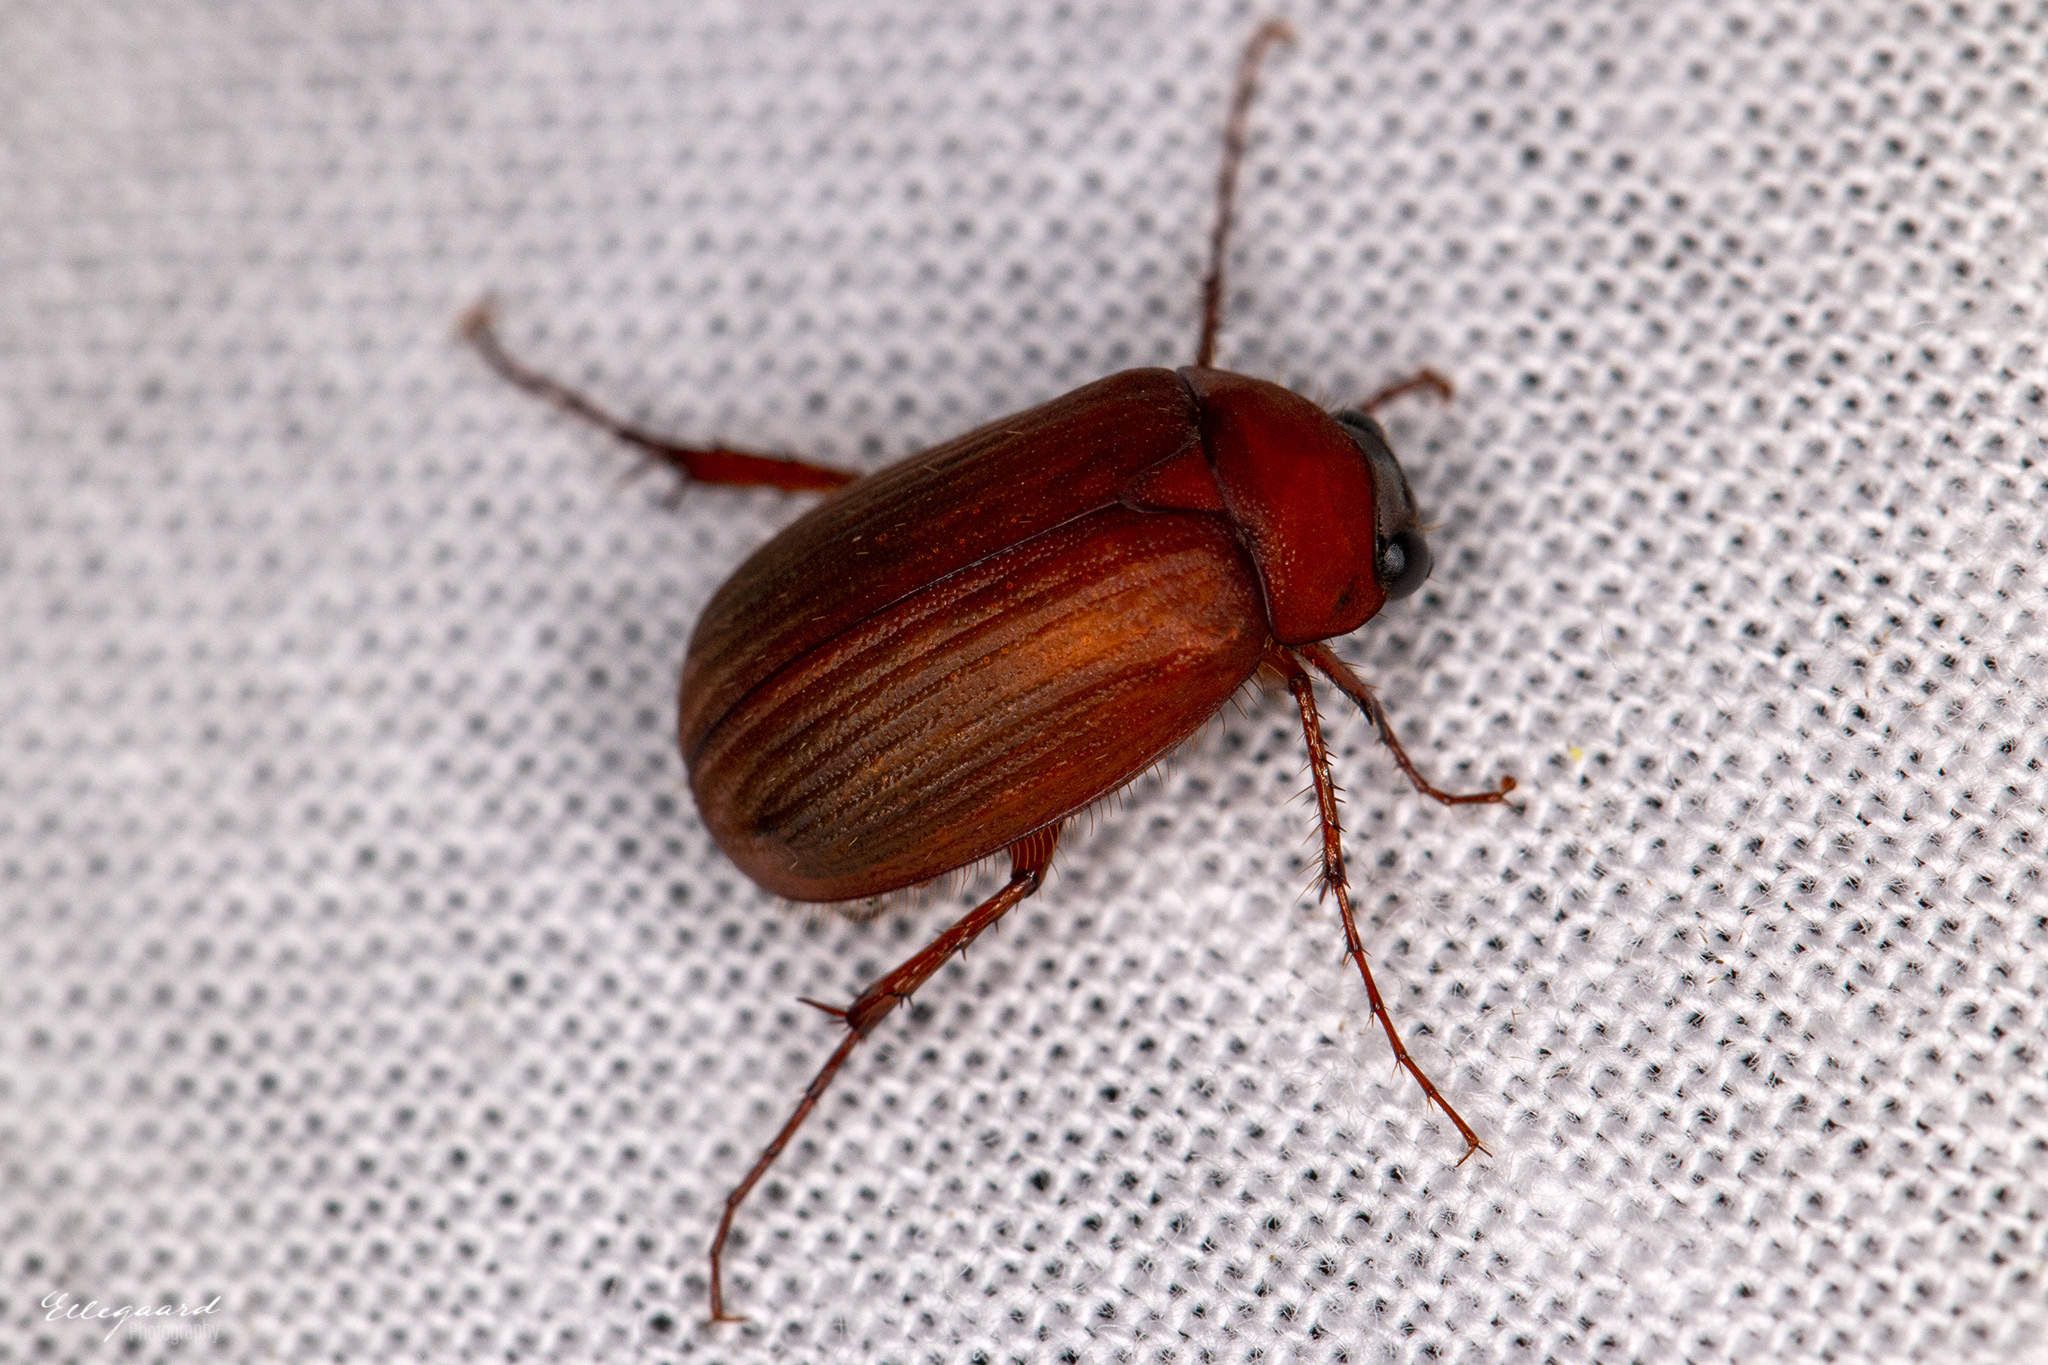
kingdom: Animalia
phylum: Arthropoda
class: Insecta
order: Coleoptera
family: Scarabaeidae
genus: Serica
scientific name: Serica brunnea
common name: Brown chafer
